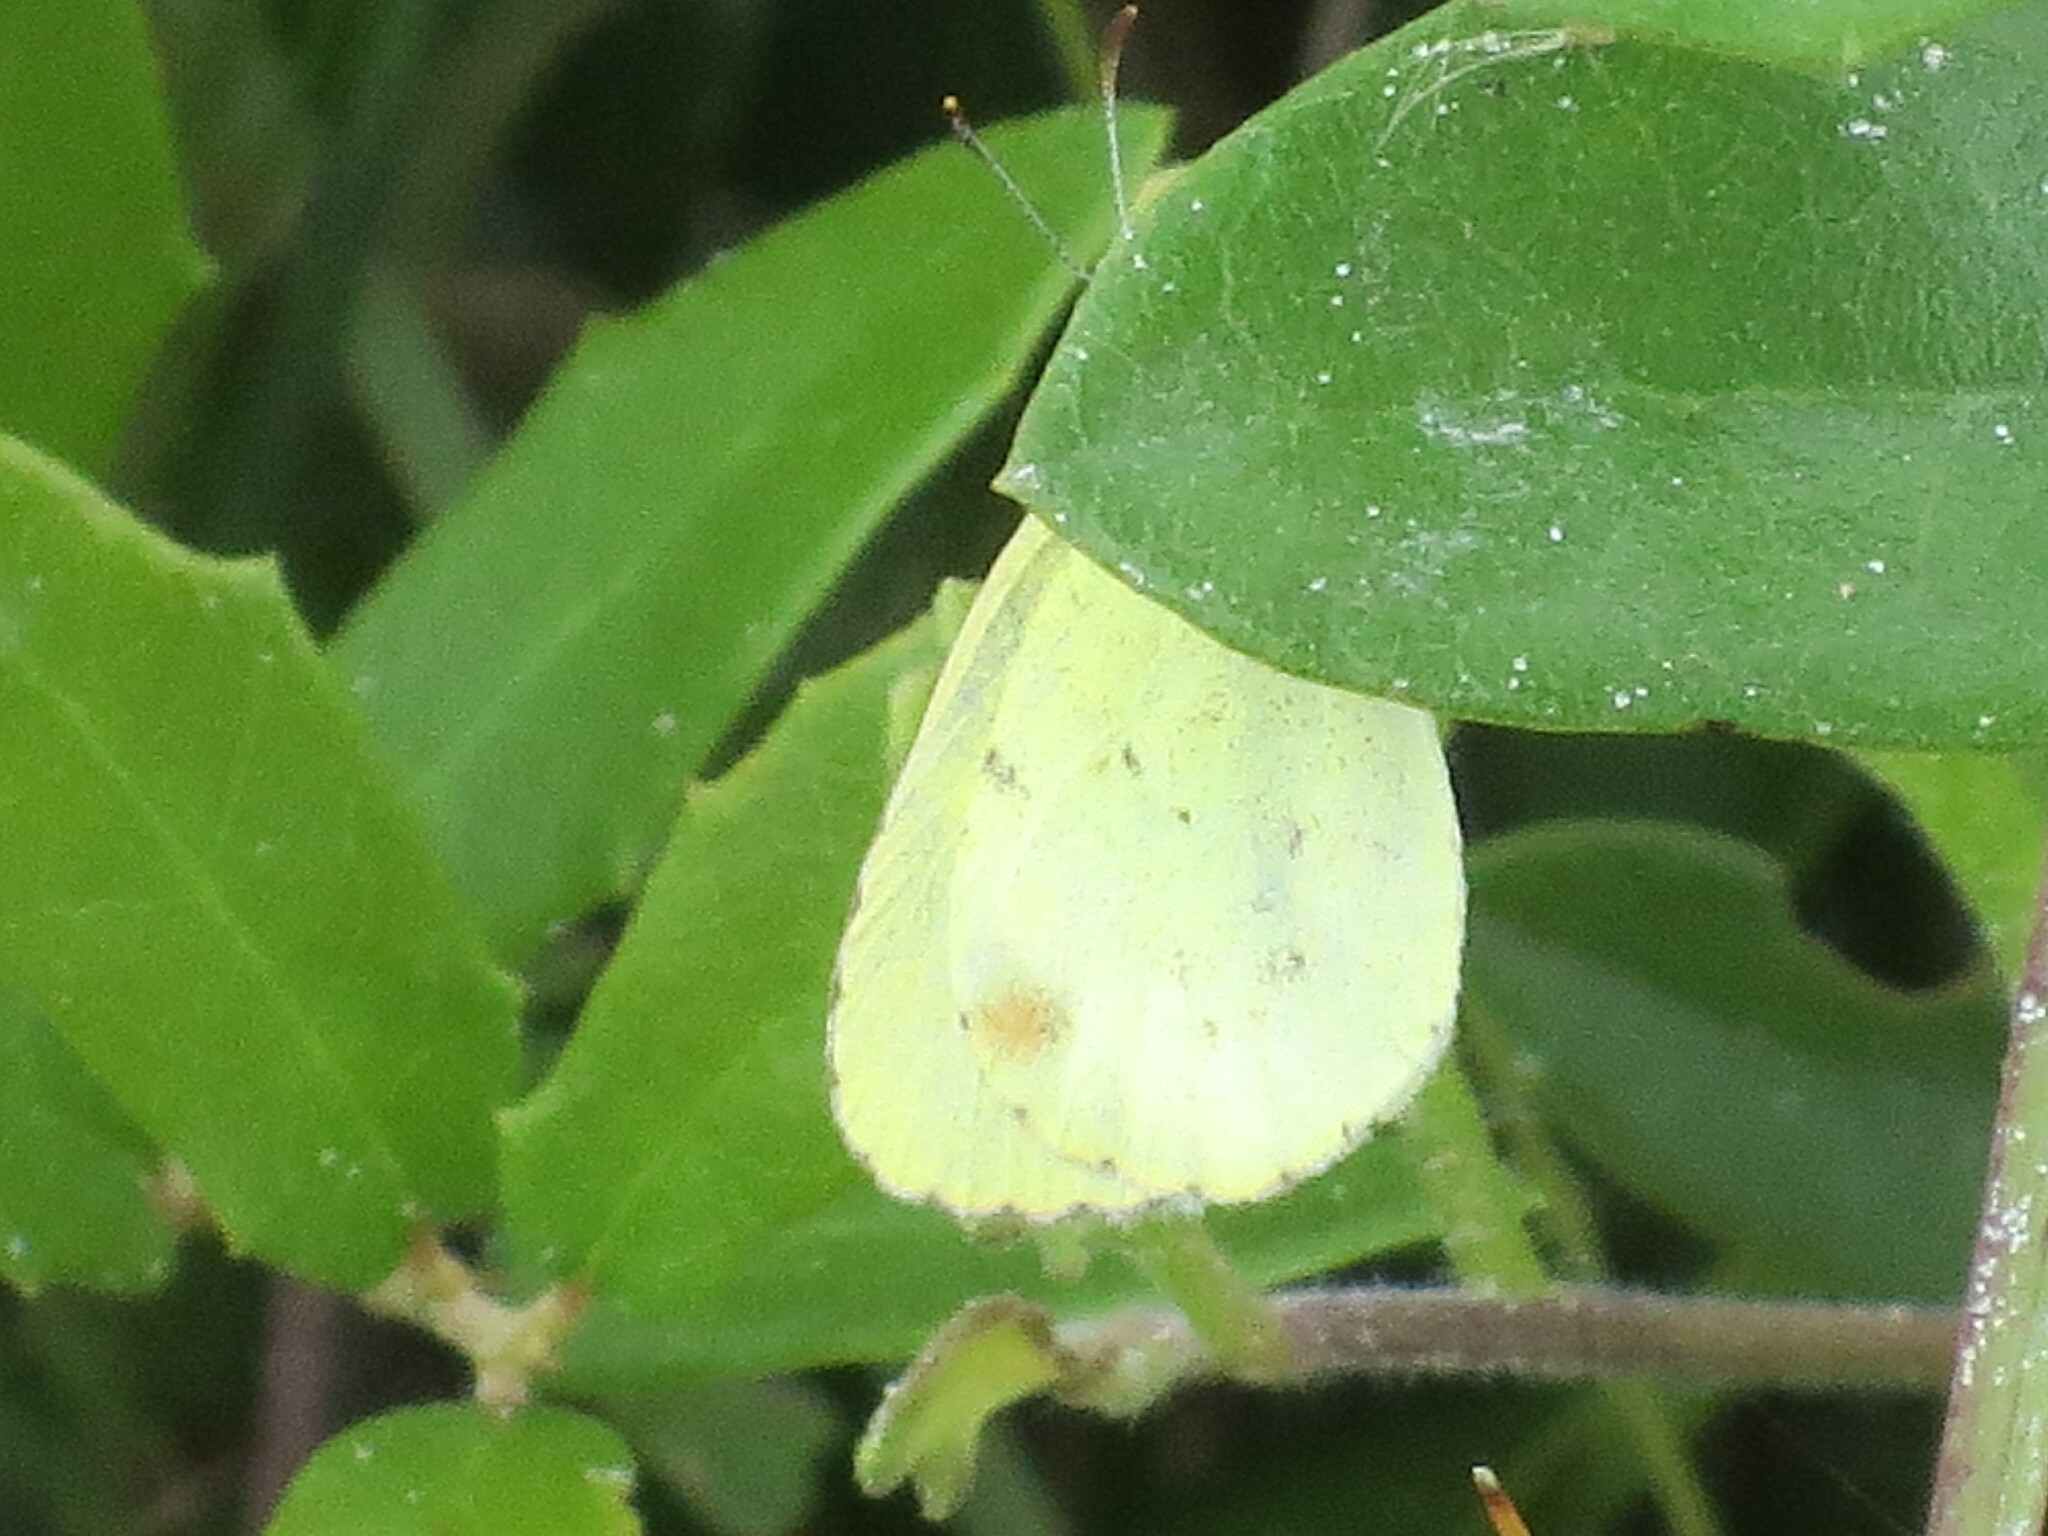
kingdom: Animalia
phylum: Arthropoda
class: Insecta
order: Lepidoptera
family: Pieridae
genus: Pyrisitia
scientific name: Pyrisitia lisa
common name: Little yellow
